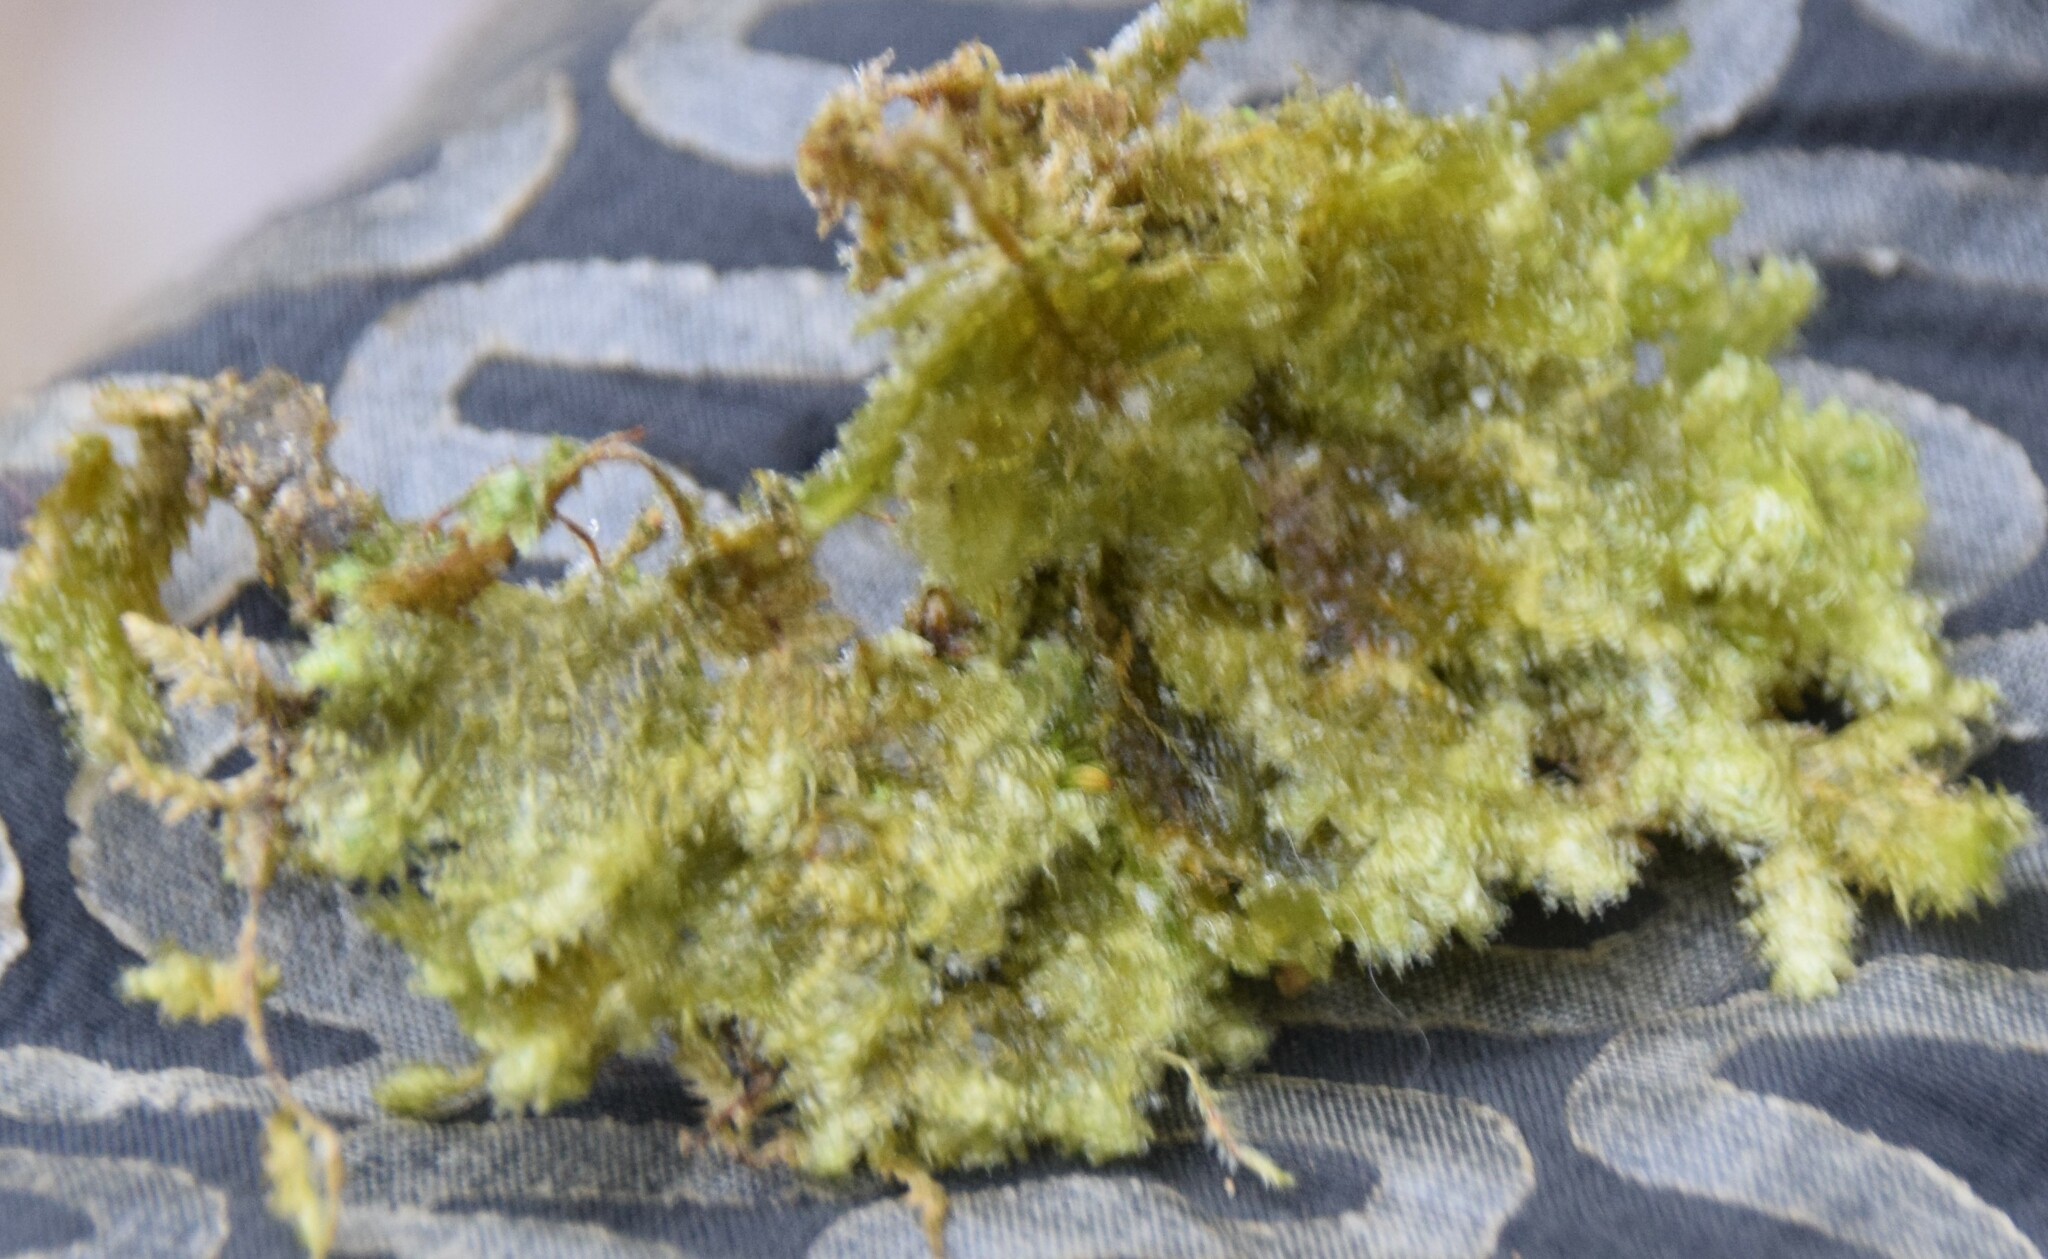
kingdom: Plantae
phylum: Bryophyta
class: Bryopsida
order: Hypnales
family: Neckeraceae
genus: Neckera
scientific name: Neckera pennata
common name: Feathery neckera
